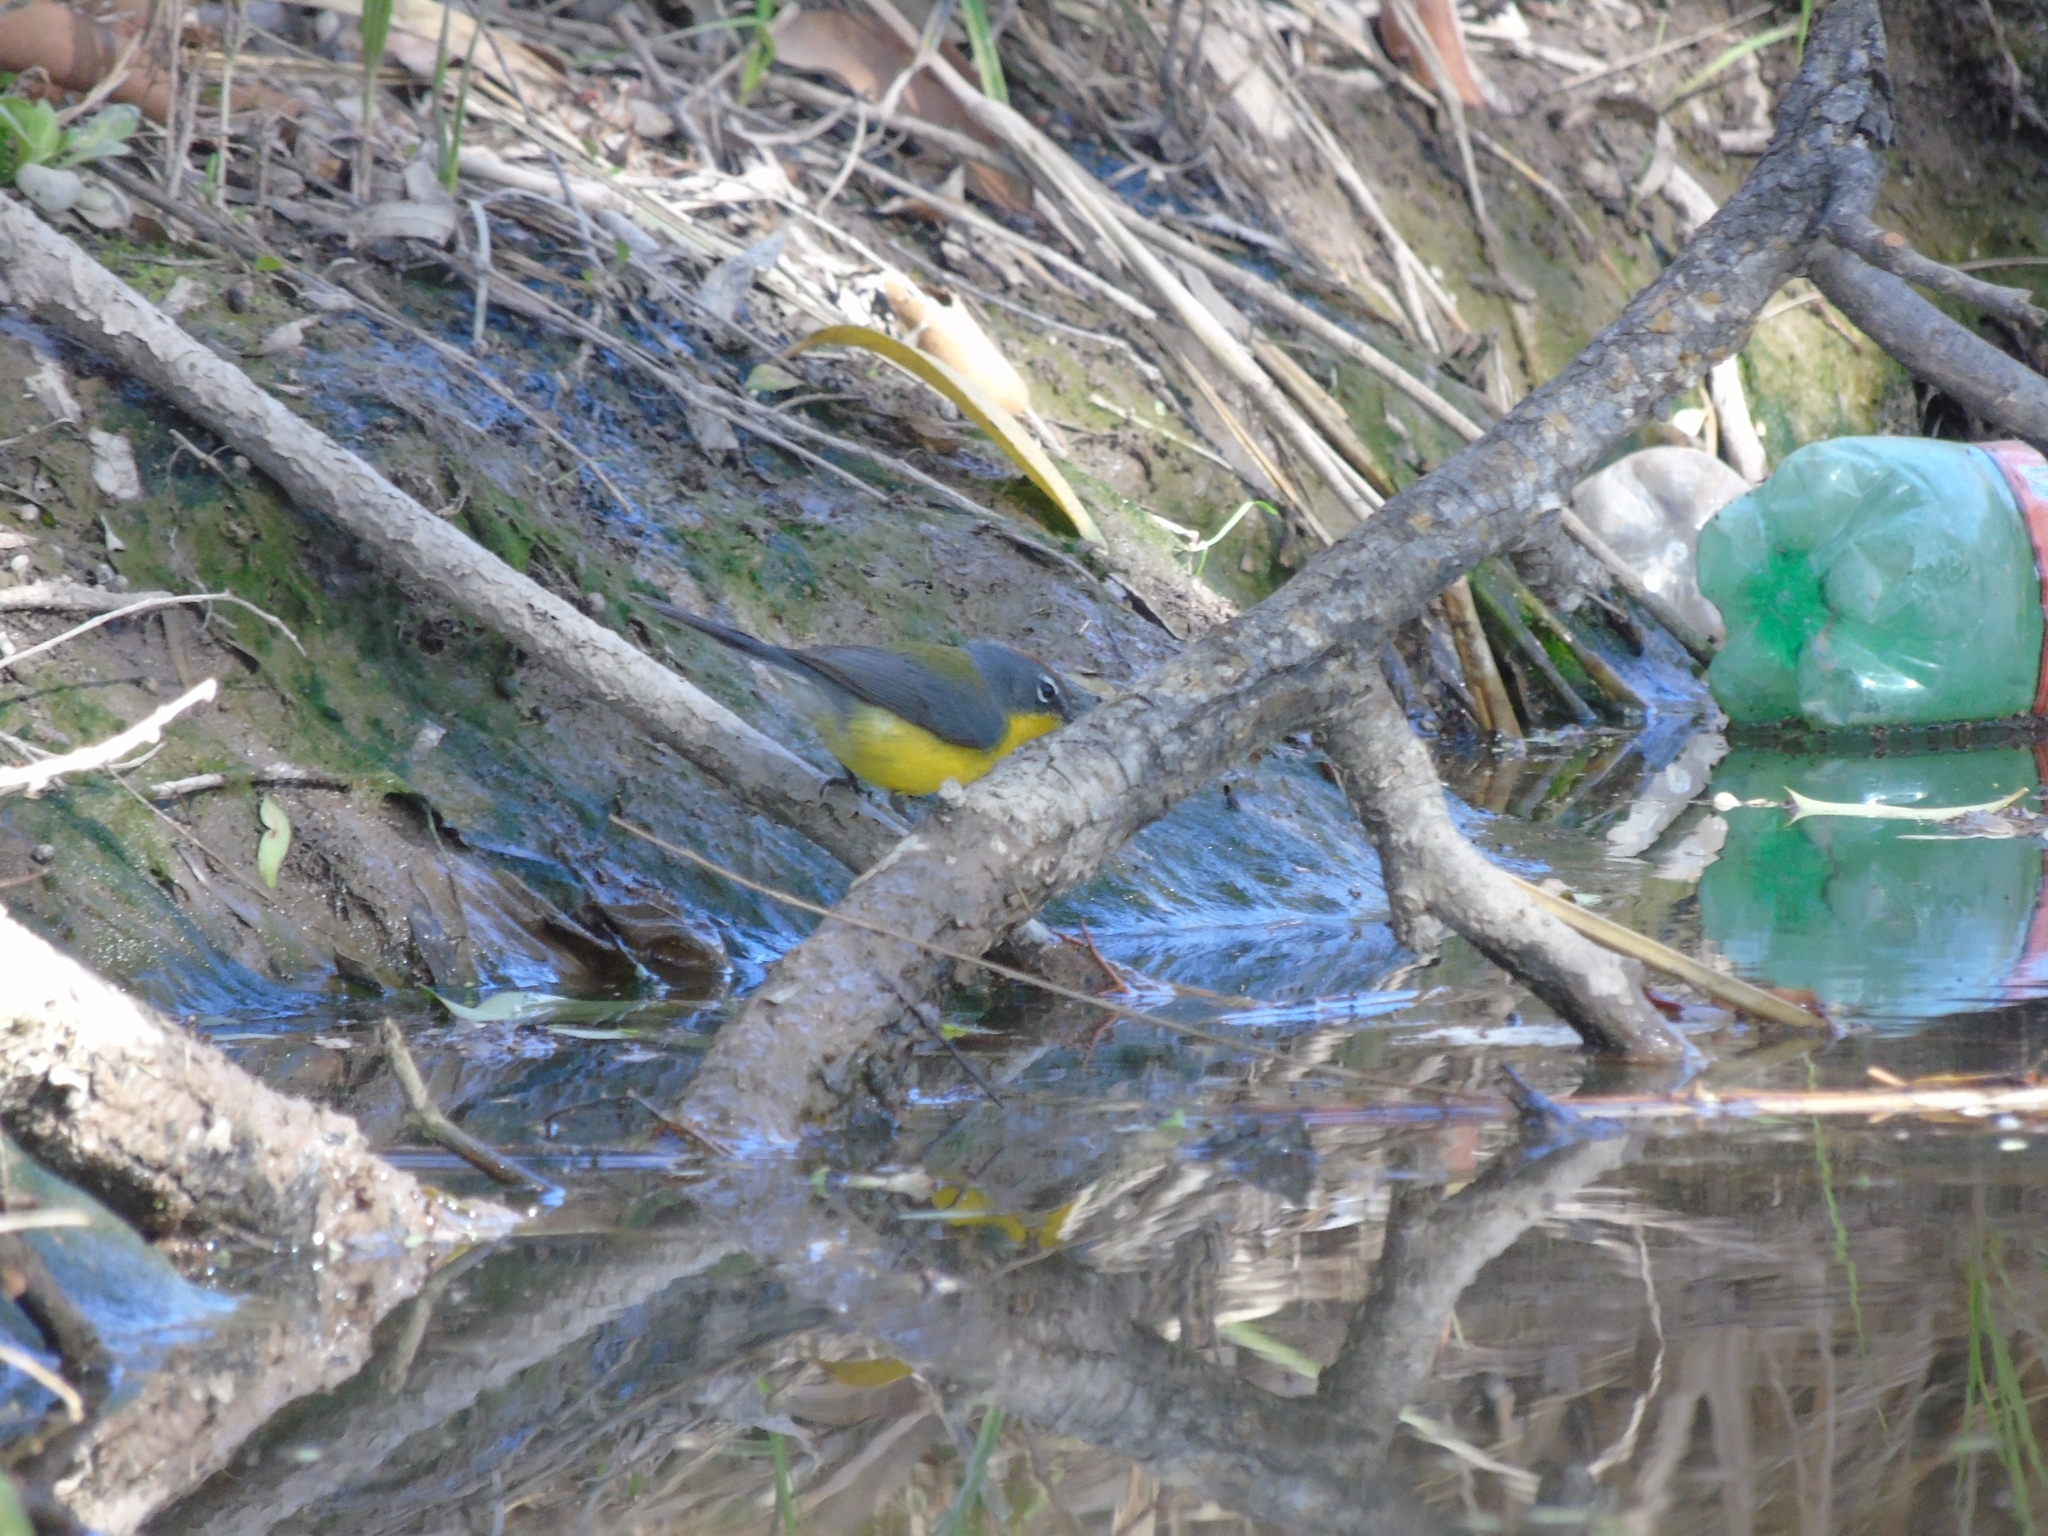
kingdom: Animalia
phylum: Chordata
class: Aves
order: Passeriformes
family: Parulidae
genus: Myioborus
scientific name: Myioborus brunniceps
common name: Brown-capped whitestart
